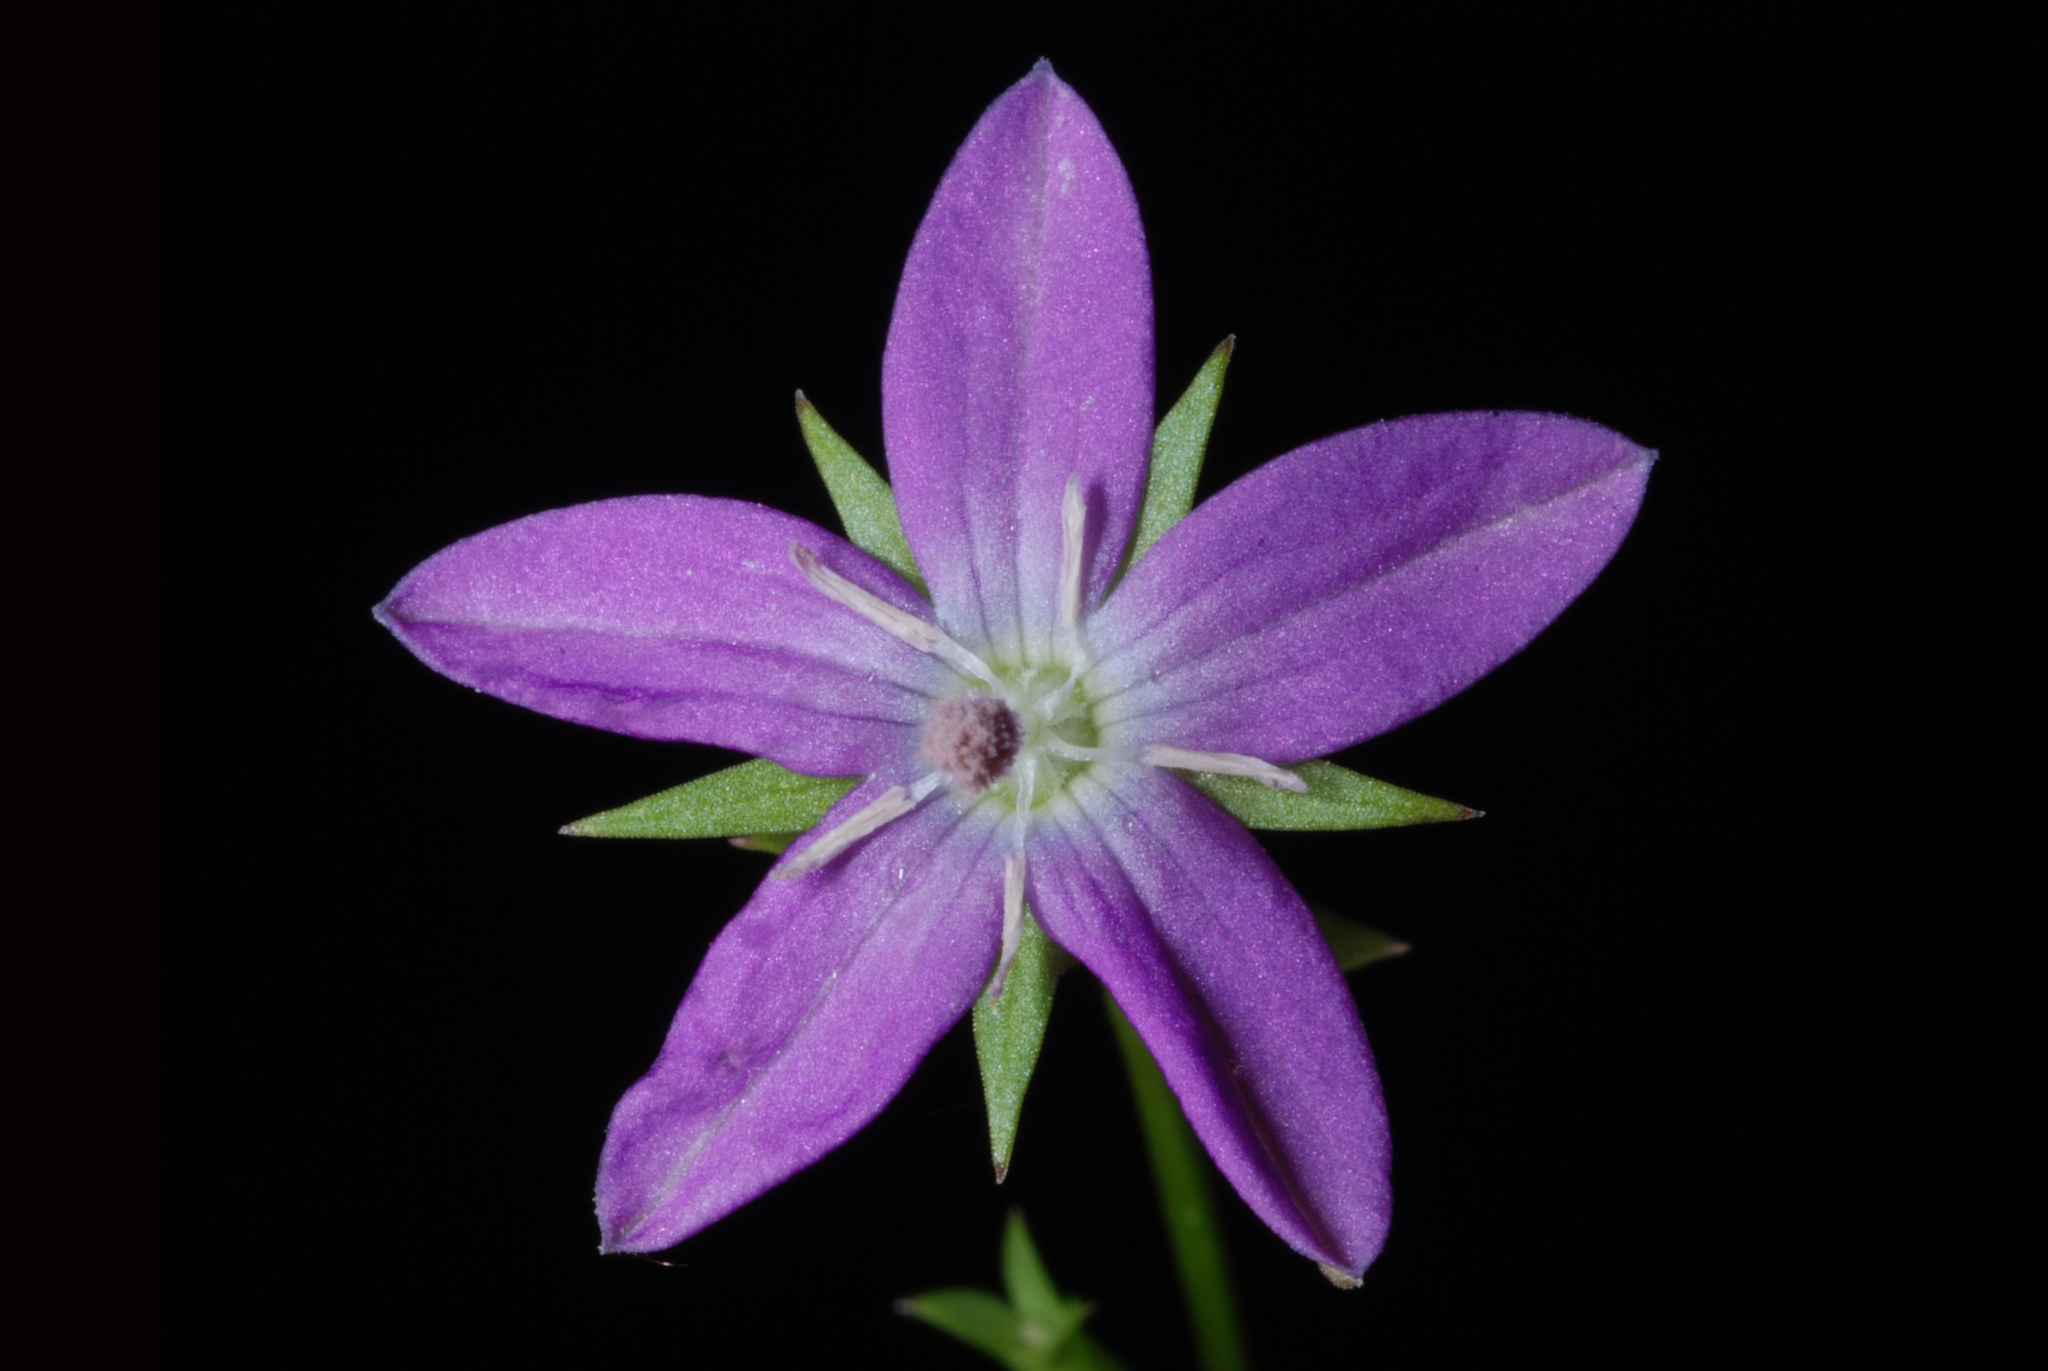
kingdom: Plantae
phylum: Tracheophyta
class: Magnoliopsida
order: Asterales
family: Campanulaceae
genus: Triodanis
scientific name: Triodanis biflora
